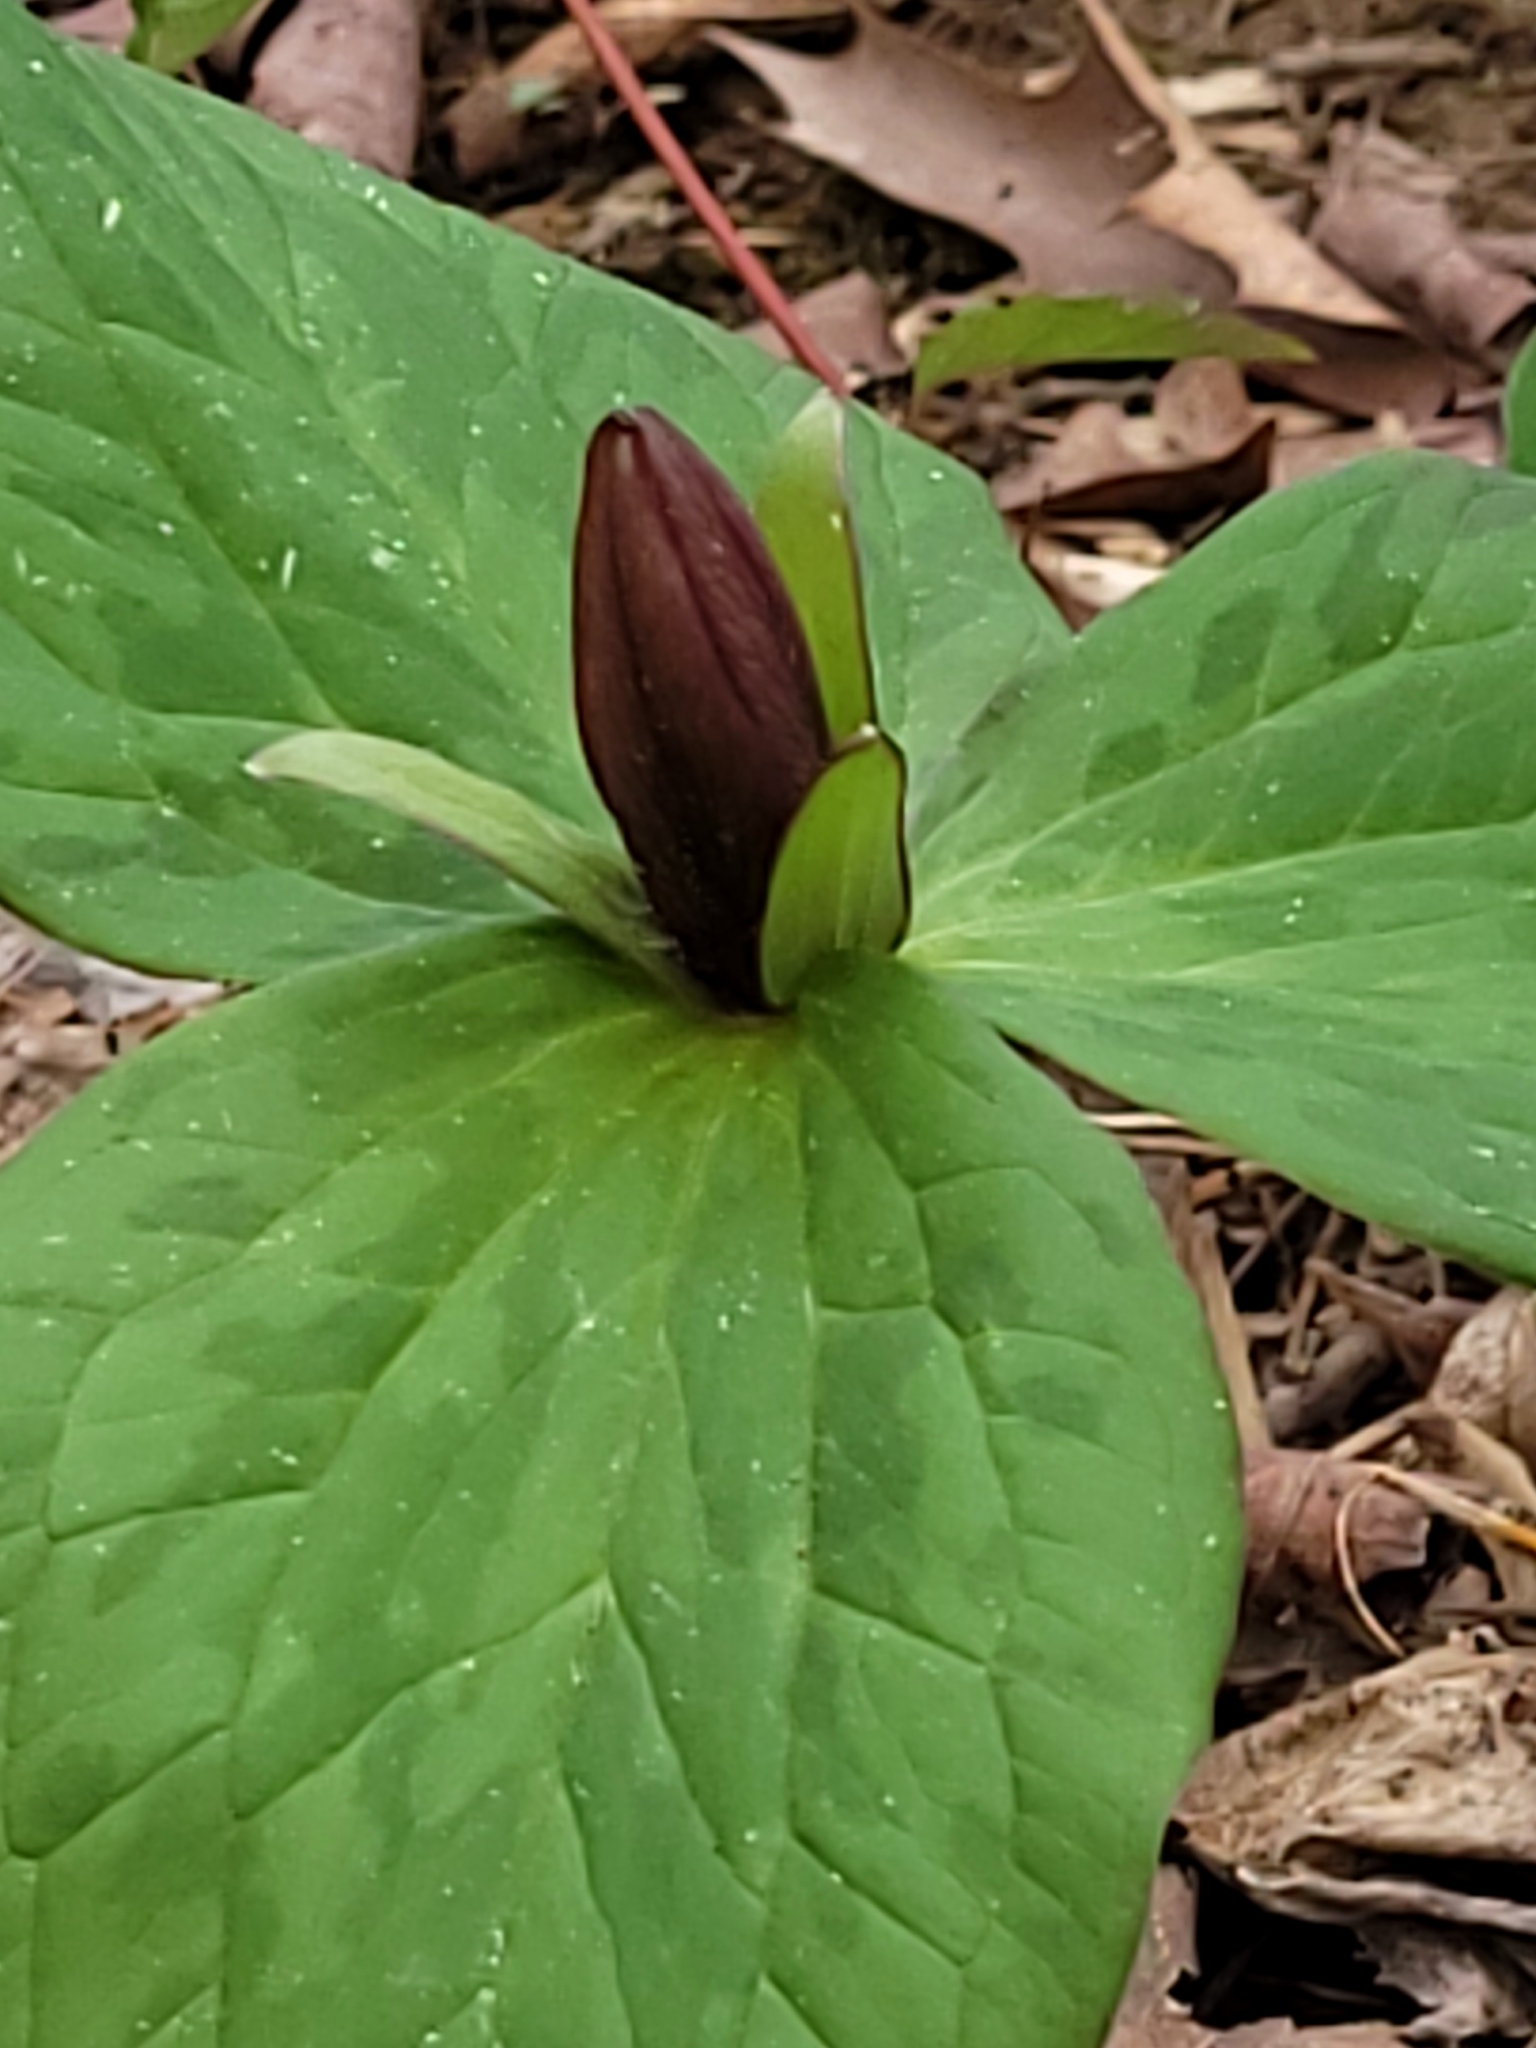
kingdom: Plantae
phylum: Tracheophyta
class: Liliopsida
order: Liliales
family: Melanthiaceae
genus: Trillium
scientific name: Trillium sessile
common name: Sessile trillium
